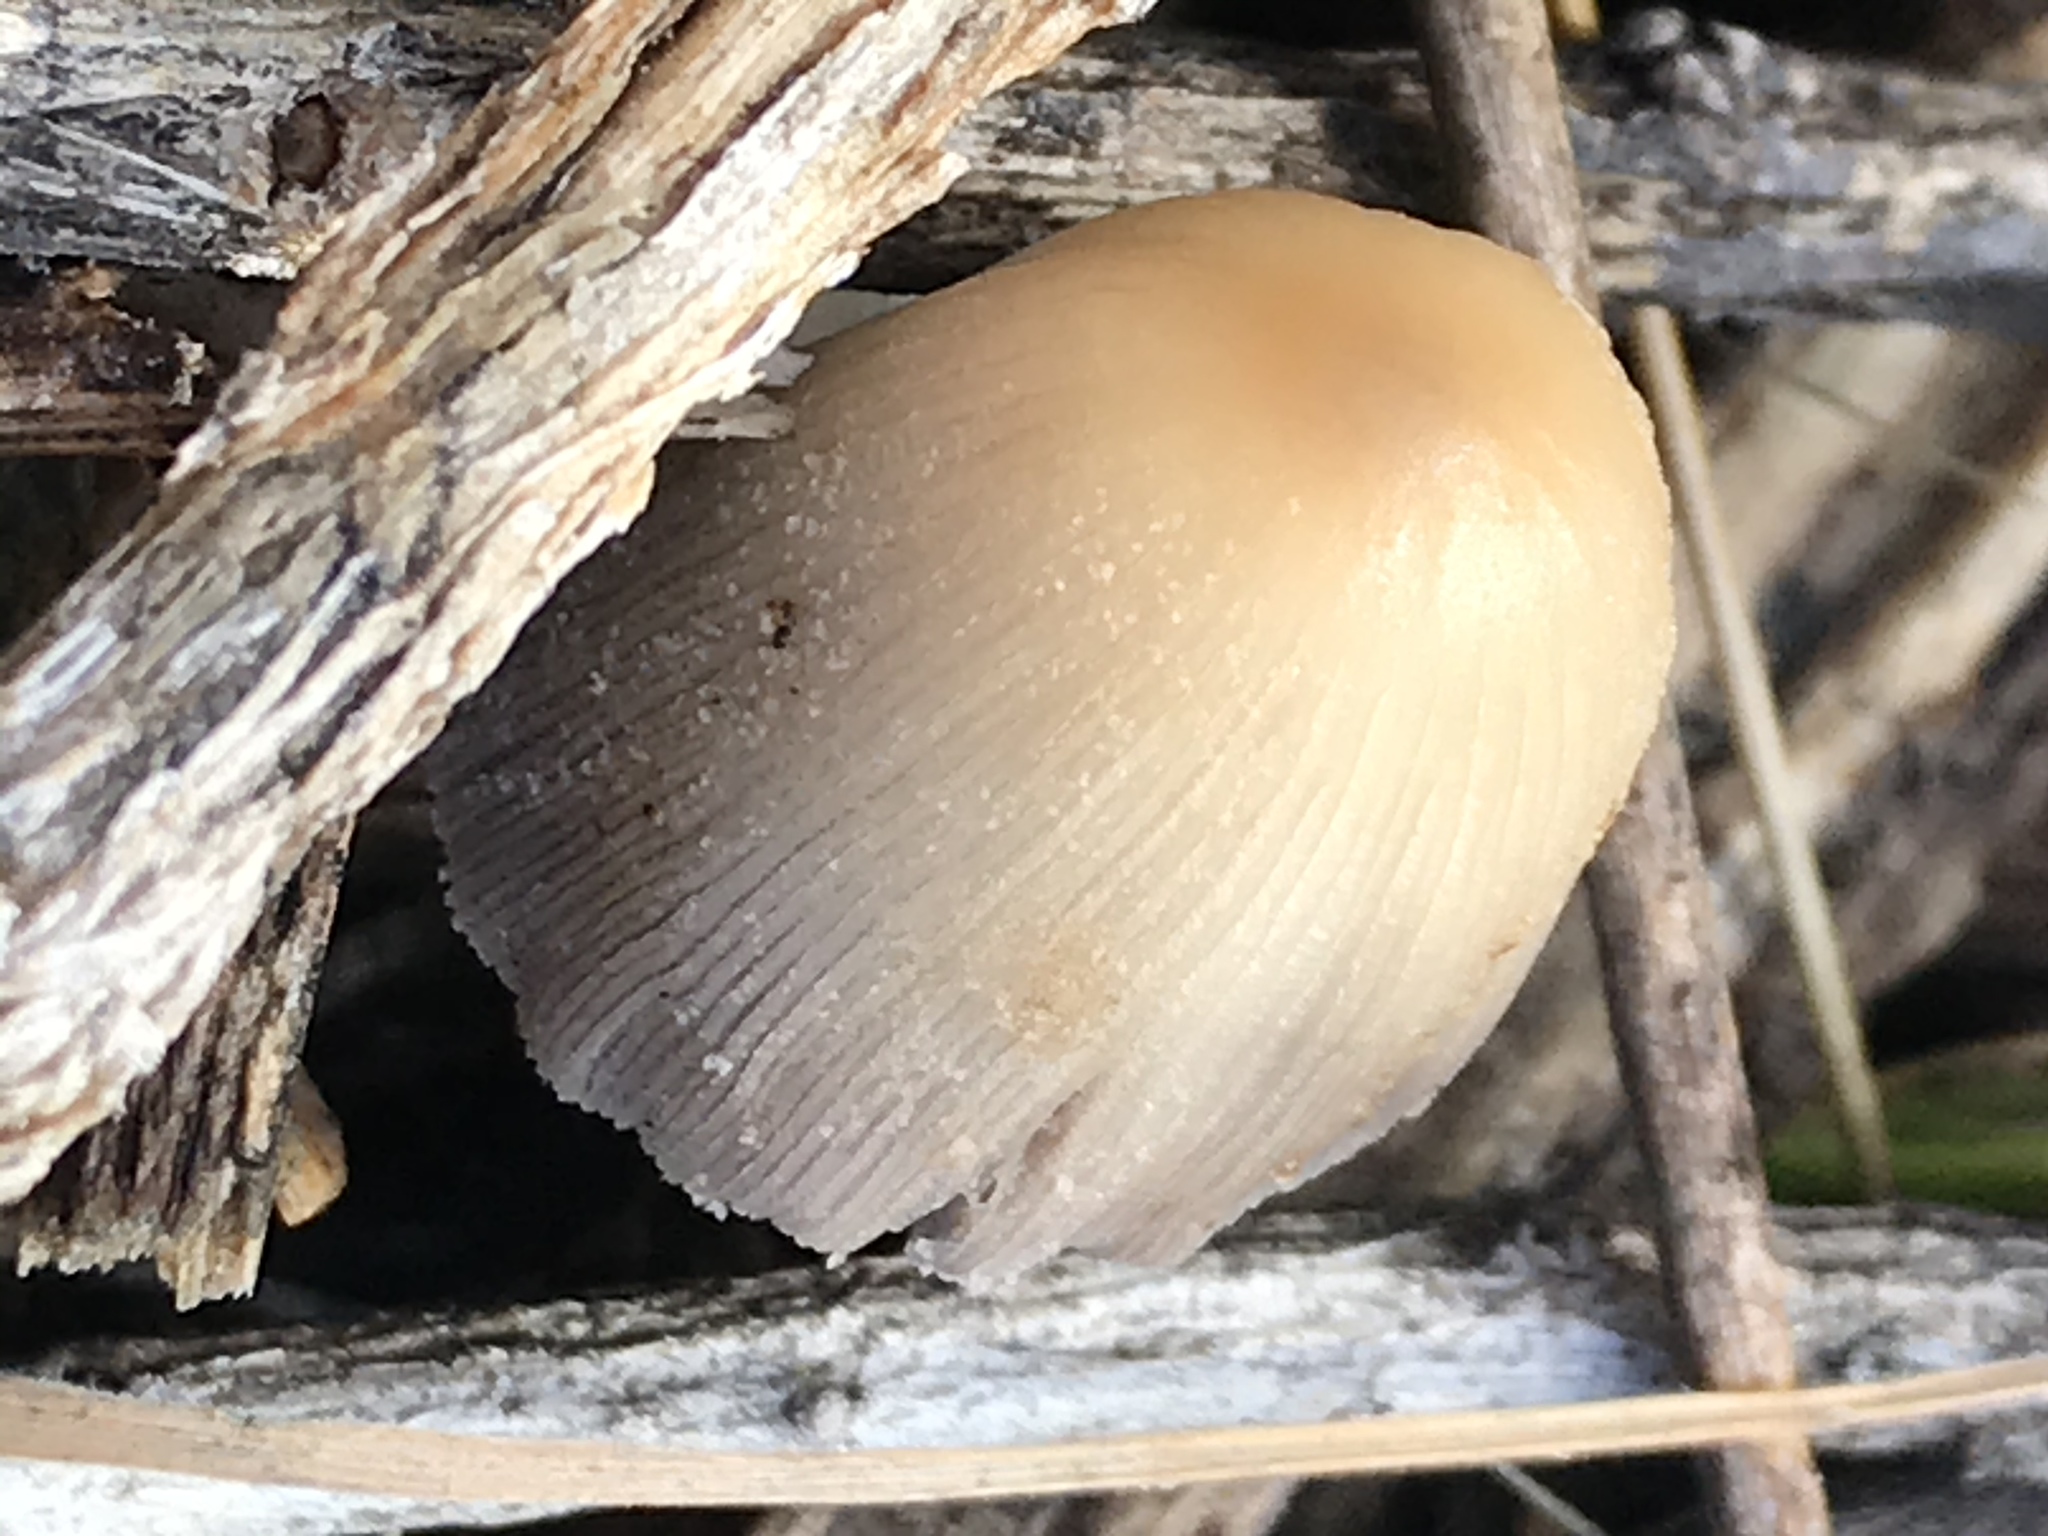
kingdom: Fungi
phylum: Basidiomycota
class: Agaricomycetes
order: Agaricales
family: Psathyrellaceae
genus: Coprinellus
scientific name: Coprinellus micaceus
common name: Glistening ink-cap
